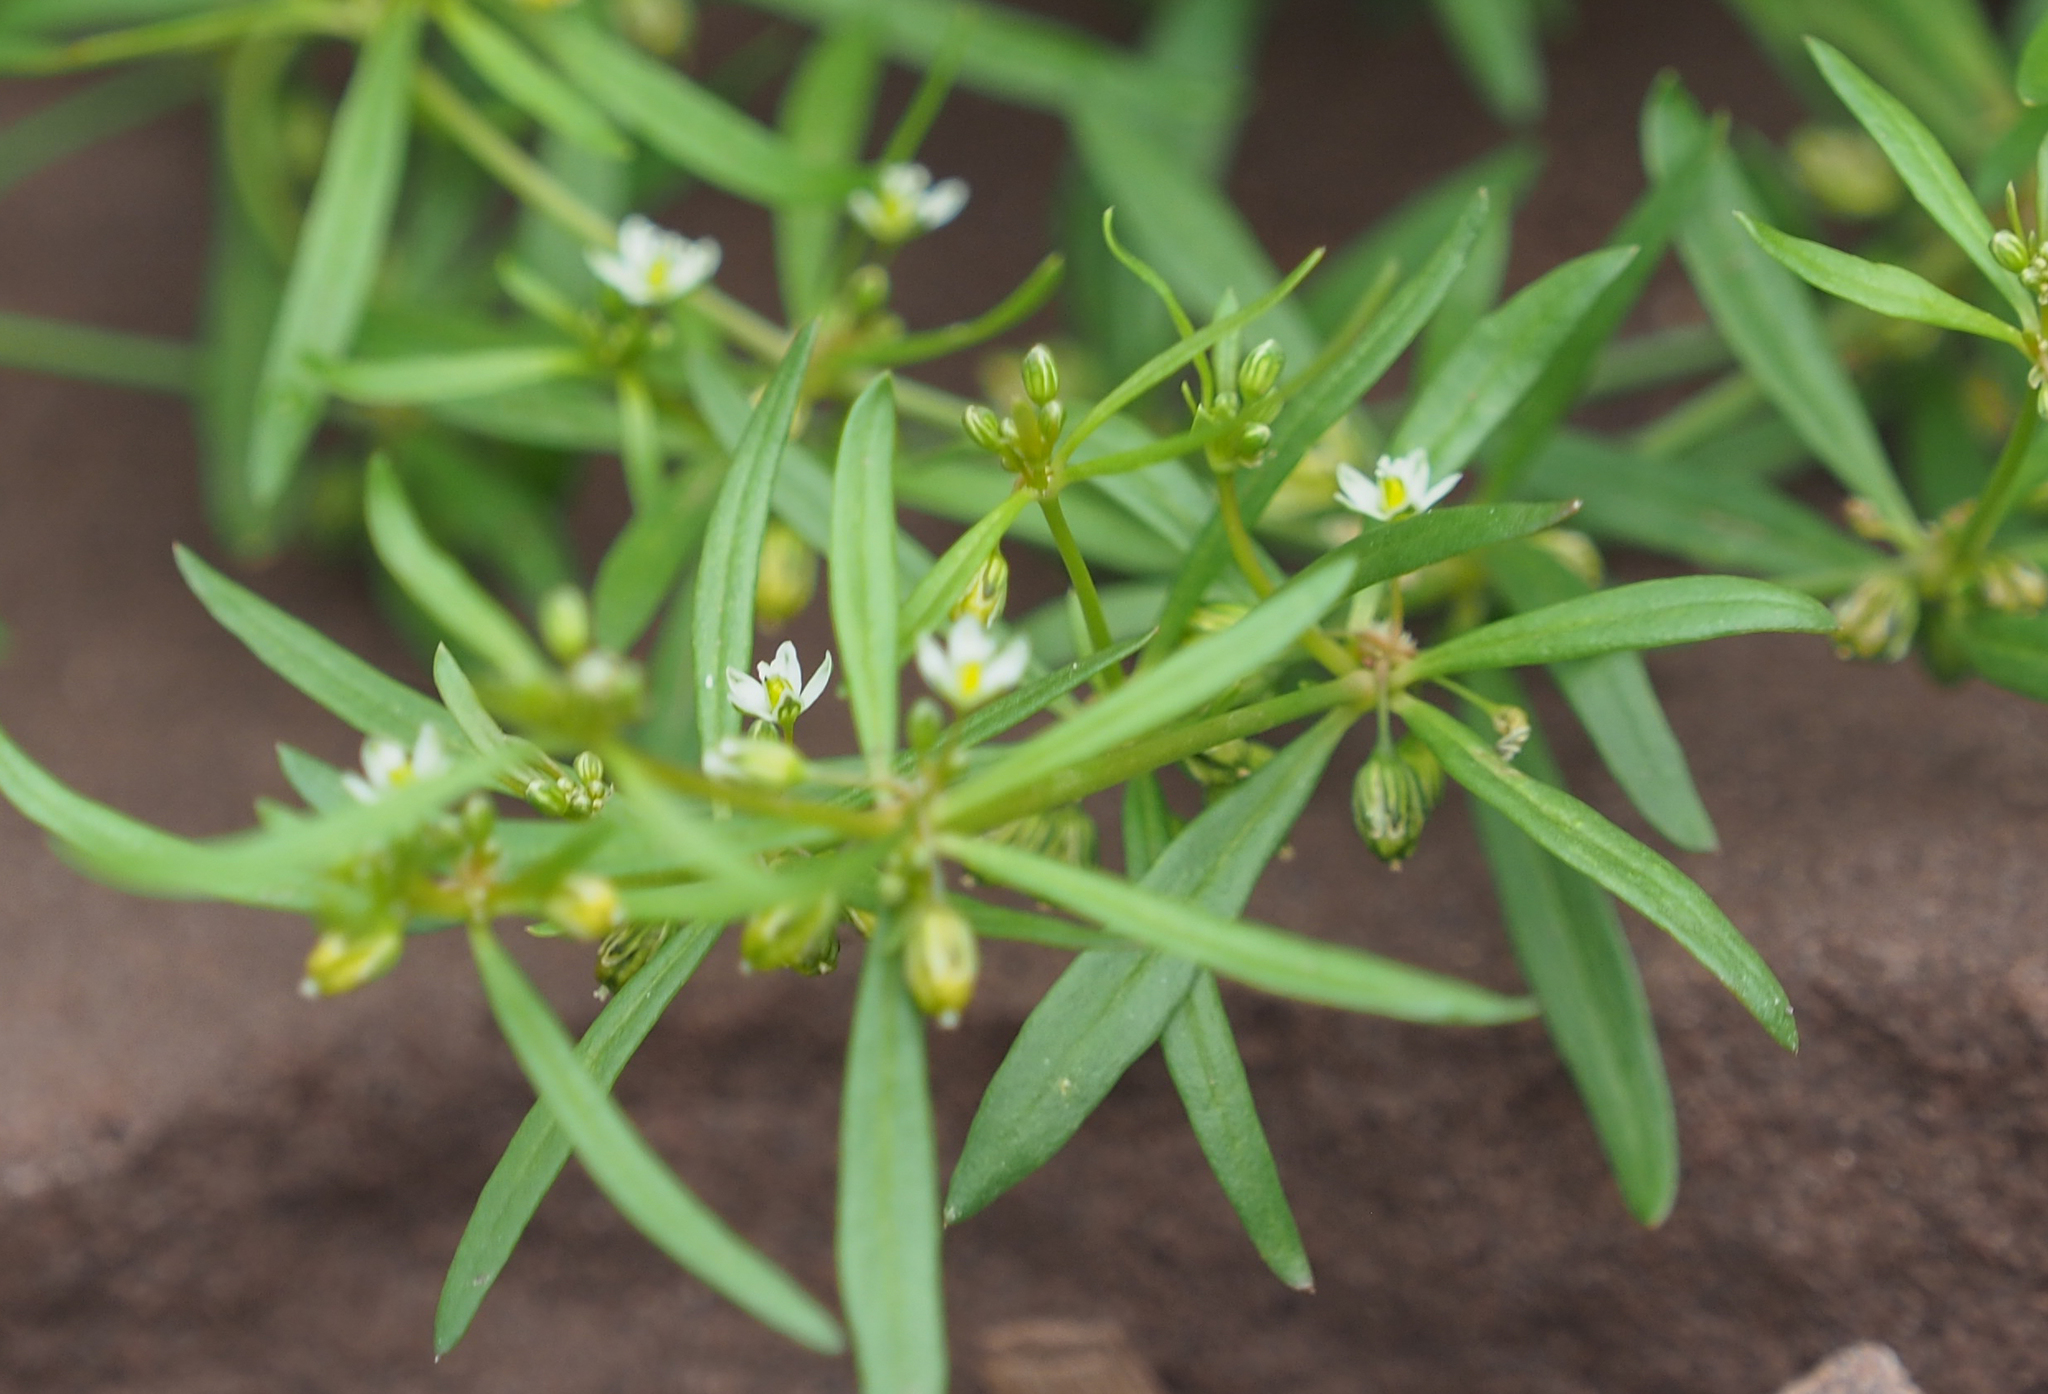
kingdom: Plantae
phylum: Tracheophyta
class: Magnoliopsida
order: Caryophyllales
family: Molluginaceae
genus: Mollugo
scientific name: Mollugo verticillata
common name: Green carpetweed
